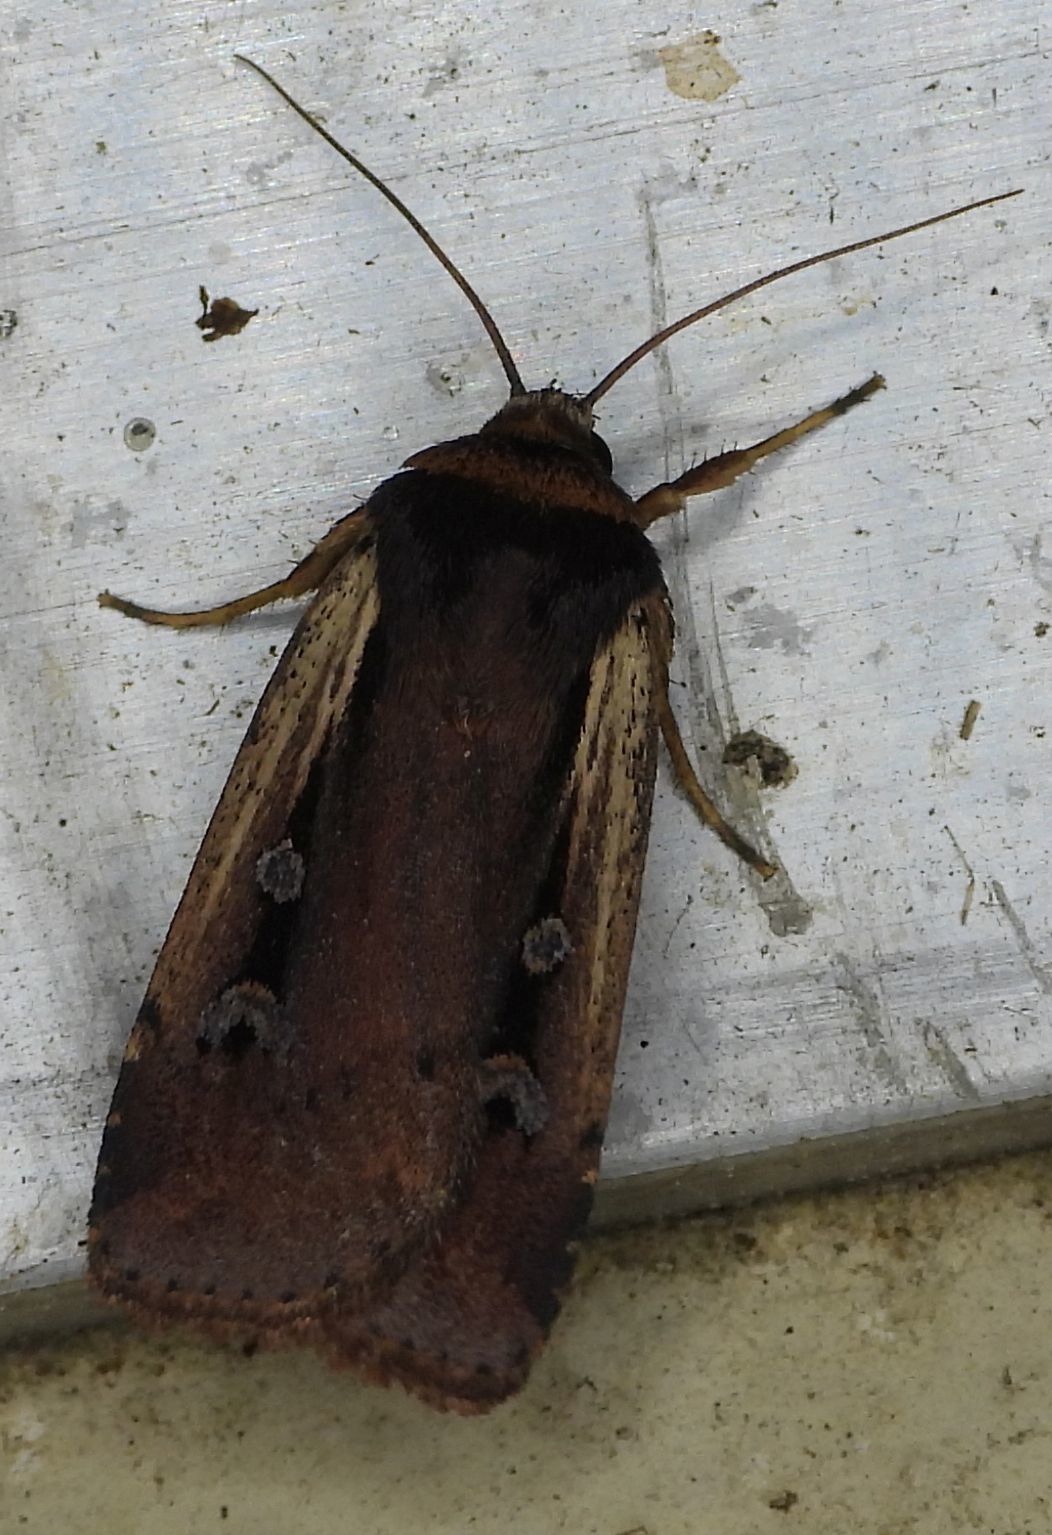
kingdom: Animalia
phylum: Arthropoda
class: Insecta
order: Lepidoptera
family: Noctuidae
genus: Ochropleura
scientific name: Ochropleura implecta
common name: Flame-shouldered dart
